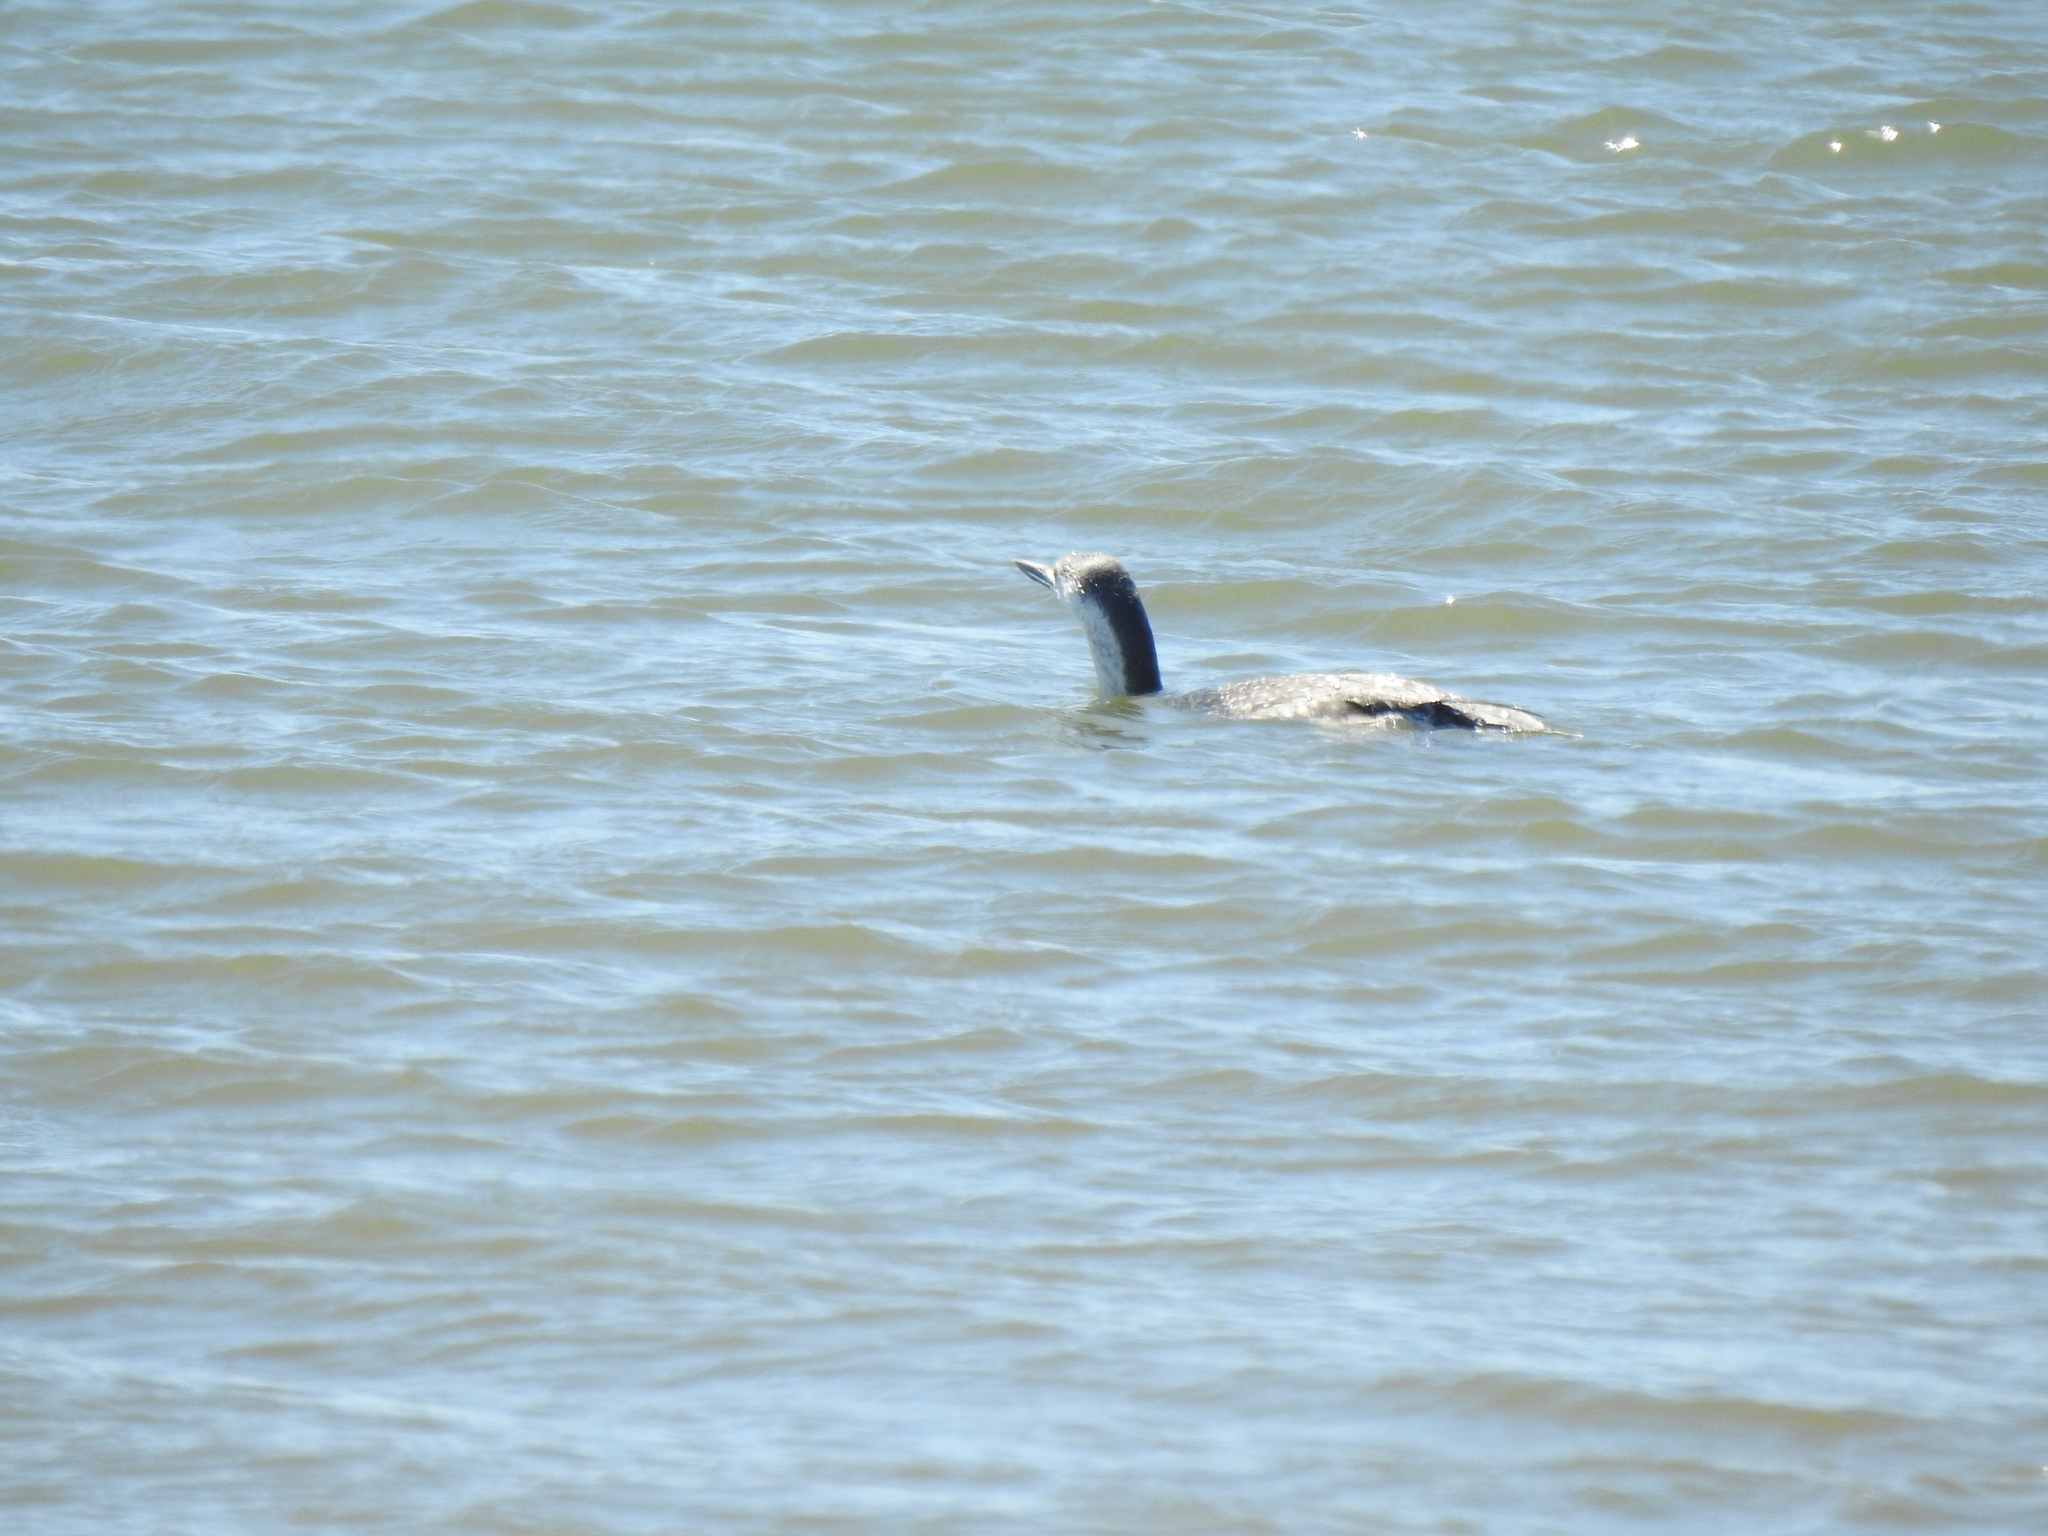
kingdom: Animalia
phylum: Chordata
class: Aves
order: Gaviiformes
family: Gaviidae
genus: Gavia
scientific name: Gavia stellata
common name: Red-throated loon
